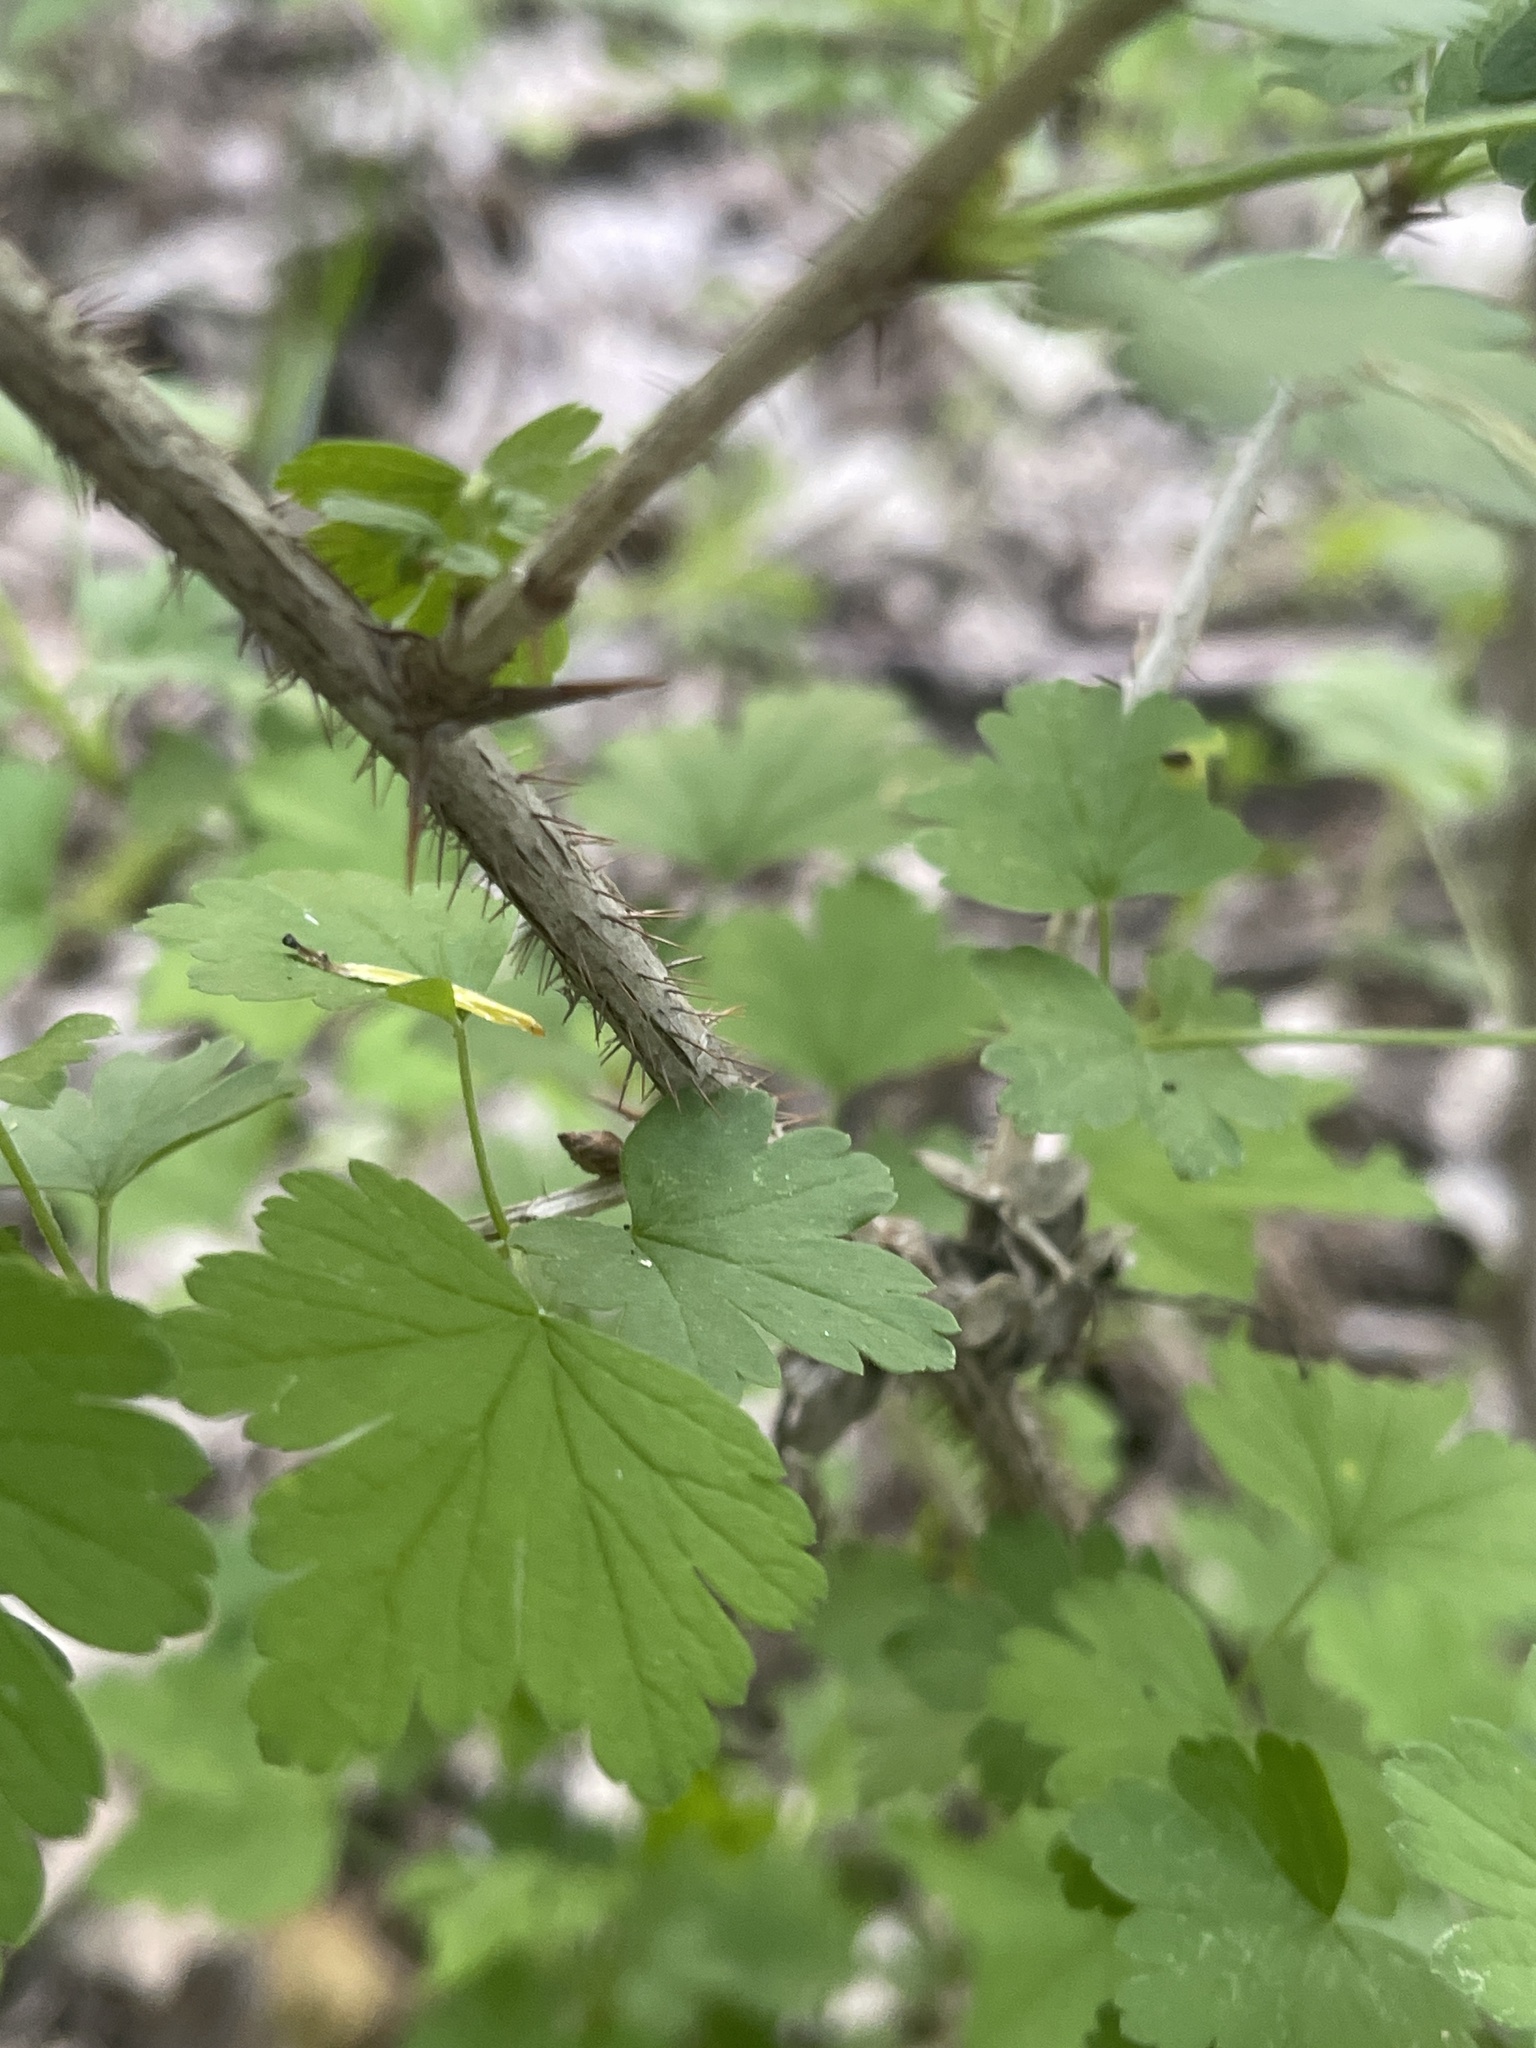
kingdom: Plantae
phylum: Tracheophyta
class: Magnoliopsida
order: Saxifragales
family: Grossulariaceae
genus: Ribes
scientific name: Ribes missouriense
